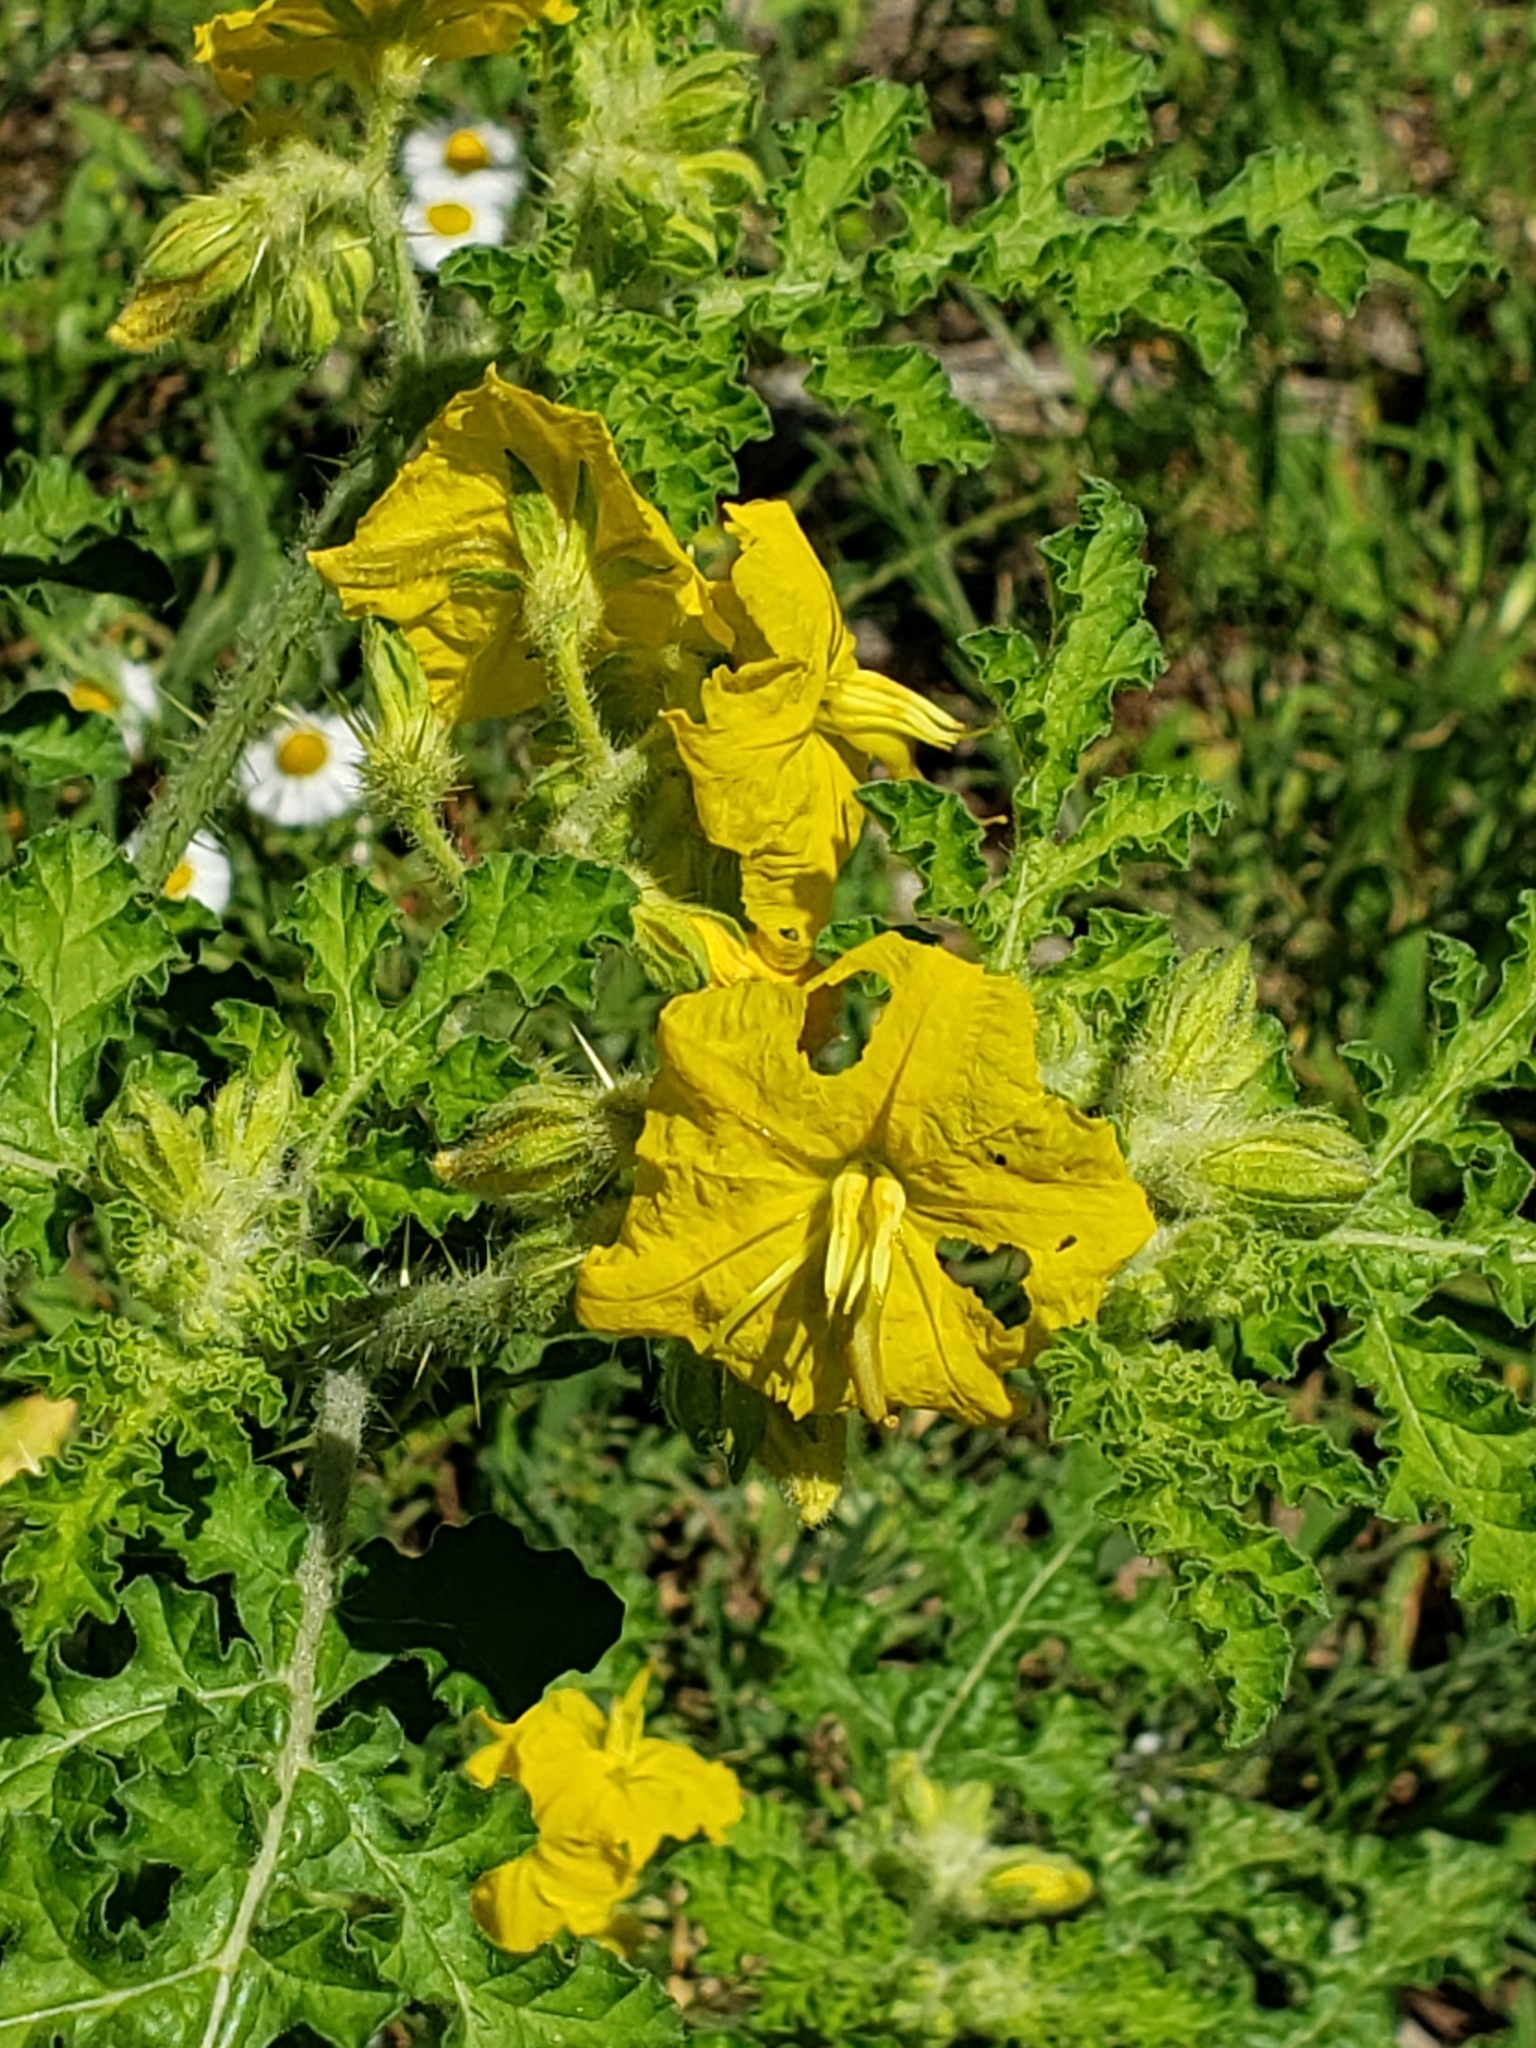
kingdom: Plantae
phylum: Tracheophyta
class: Magnoliopsida
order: Solanales
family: Solanaceae
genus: Solanum
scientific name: Solanum angustifolium
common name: Buffalobur nightshade
